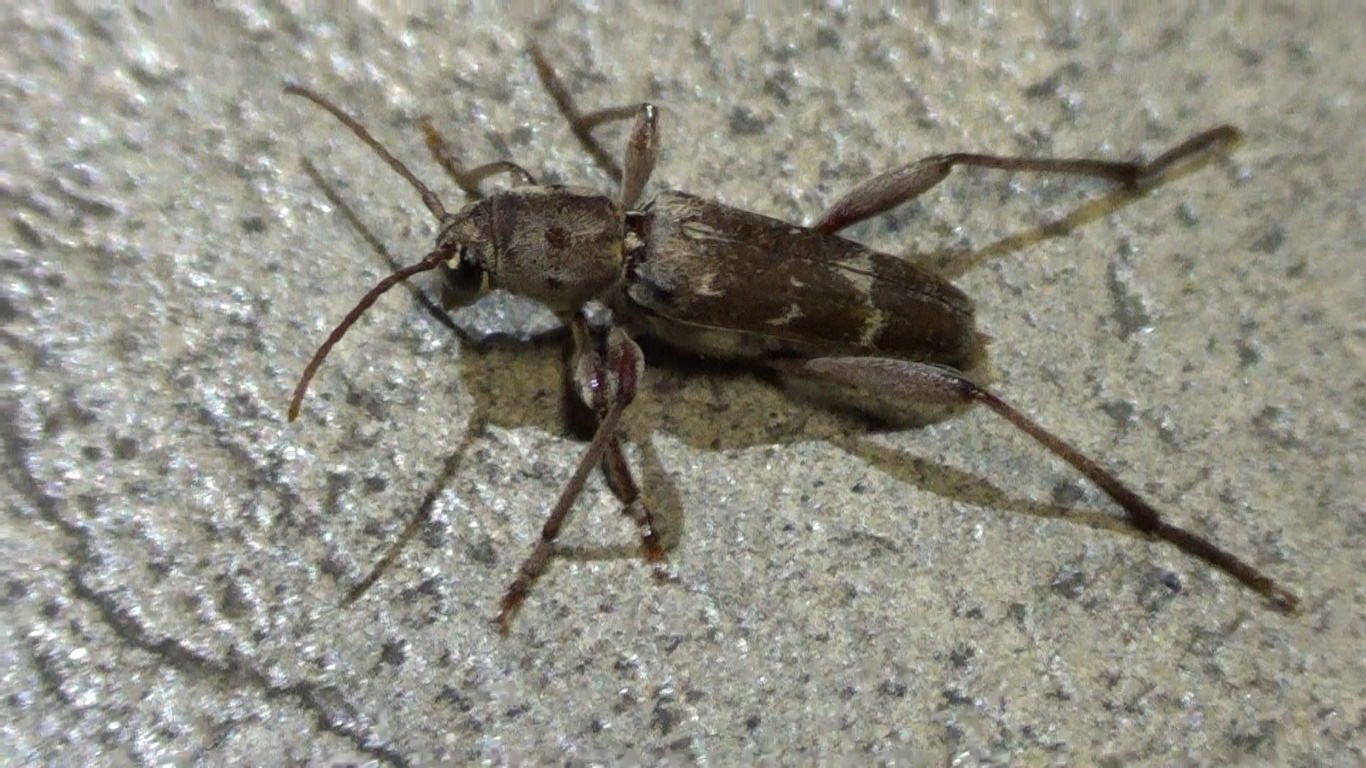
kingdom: Animalia
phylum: Arthropoda
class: Insecta
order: Coleoptera
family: Cerambycidae
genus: Xylotrechus
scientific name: Xylotrechus smei
